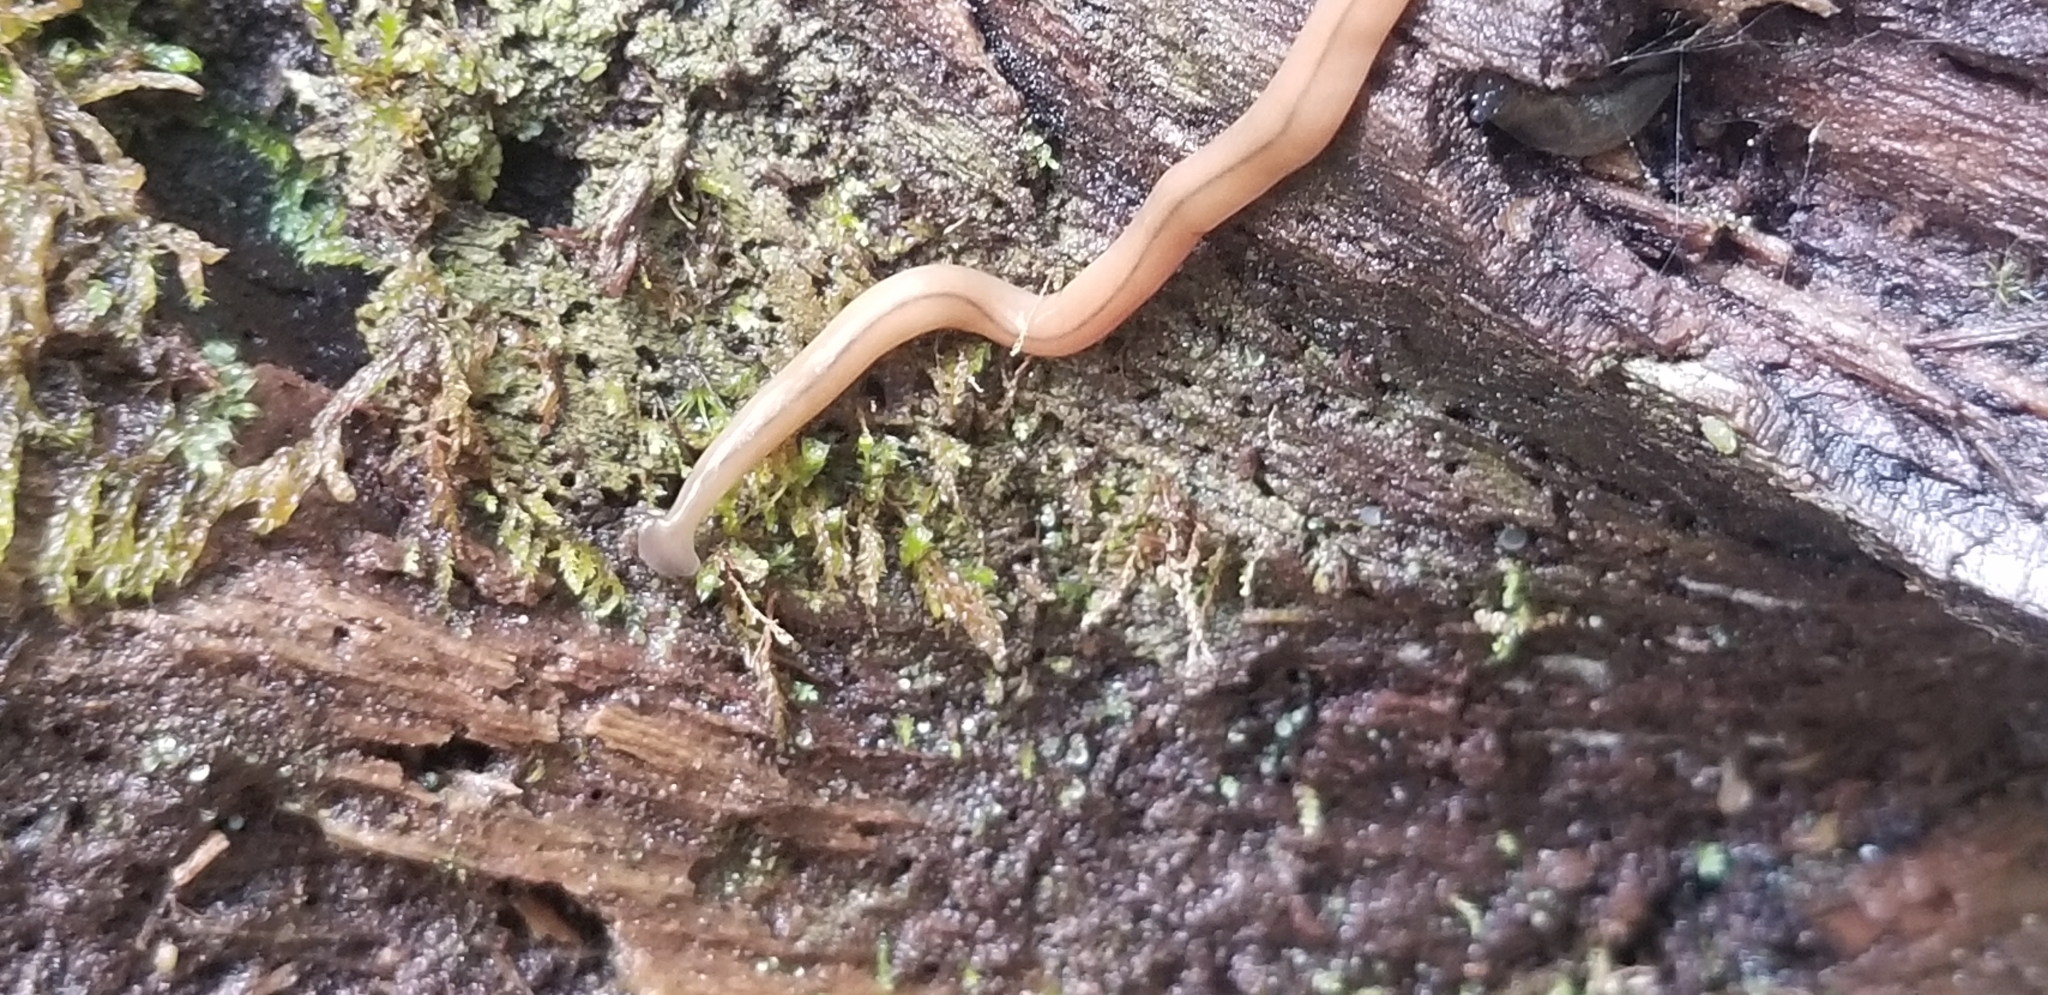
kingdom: Animalia
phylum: Platyhelminthes
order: Tricladida
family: Geoplanidae
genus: Bipalium
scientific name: Bipalium adventitium
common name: Land planarian
